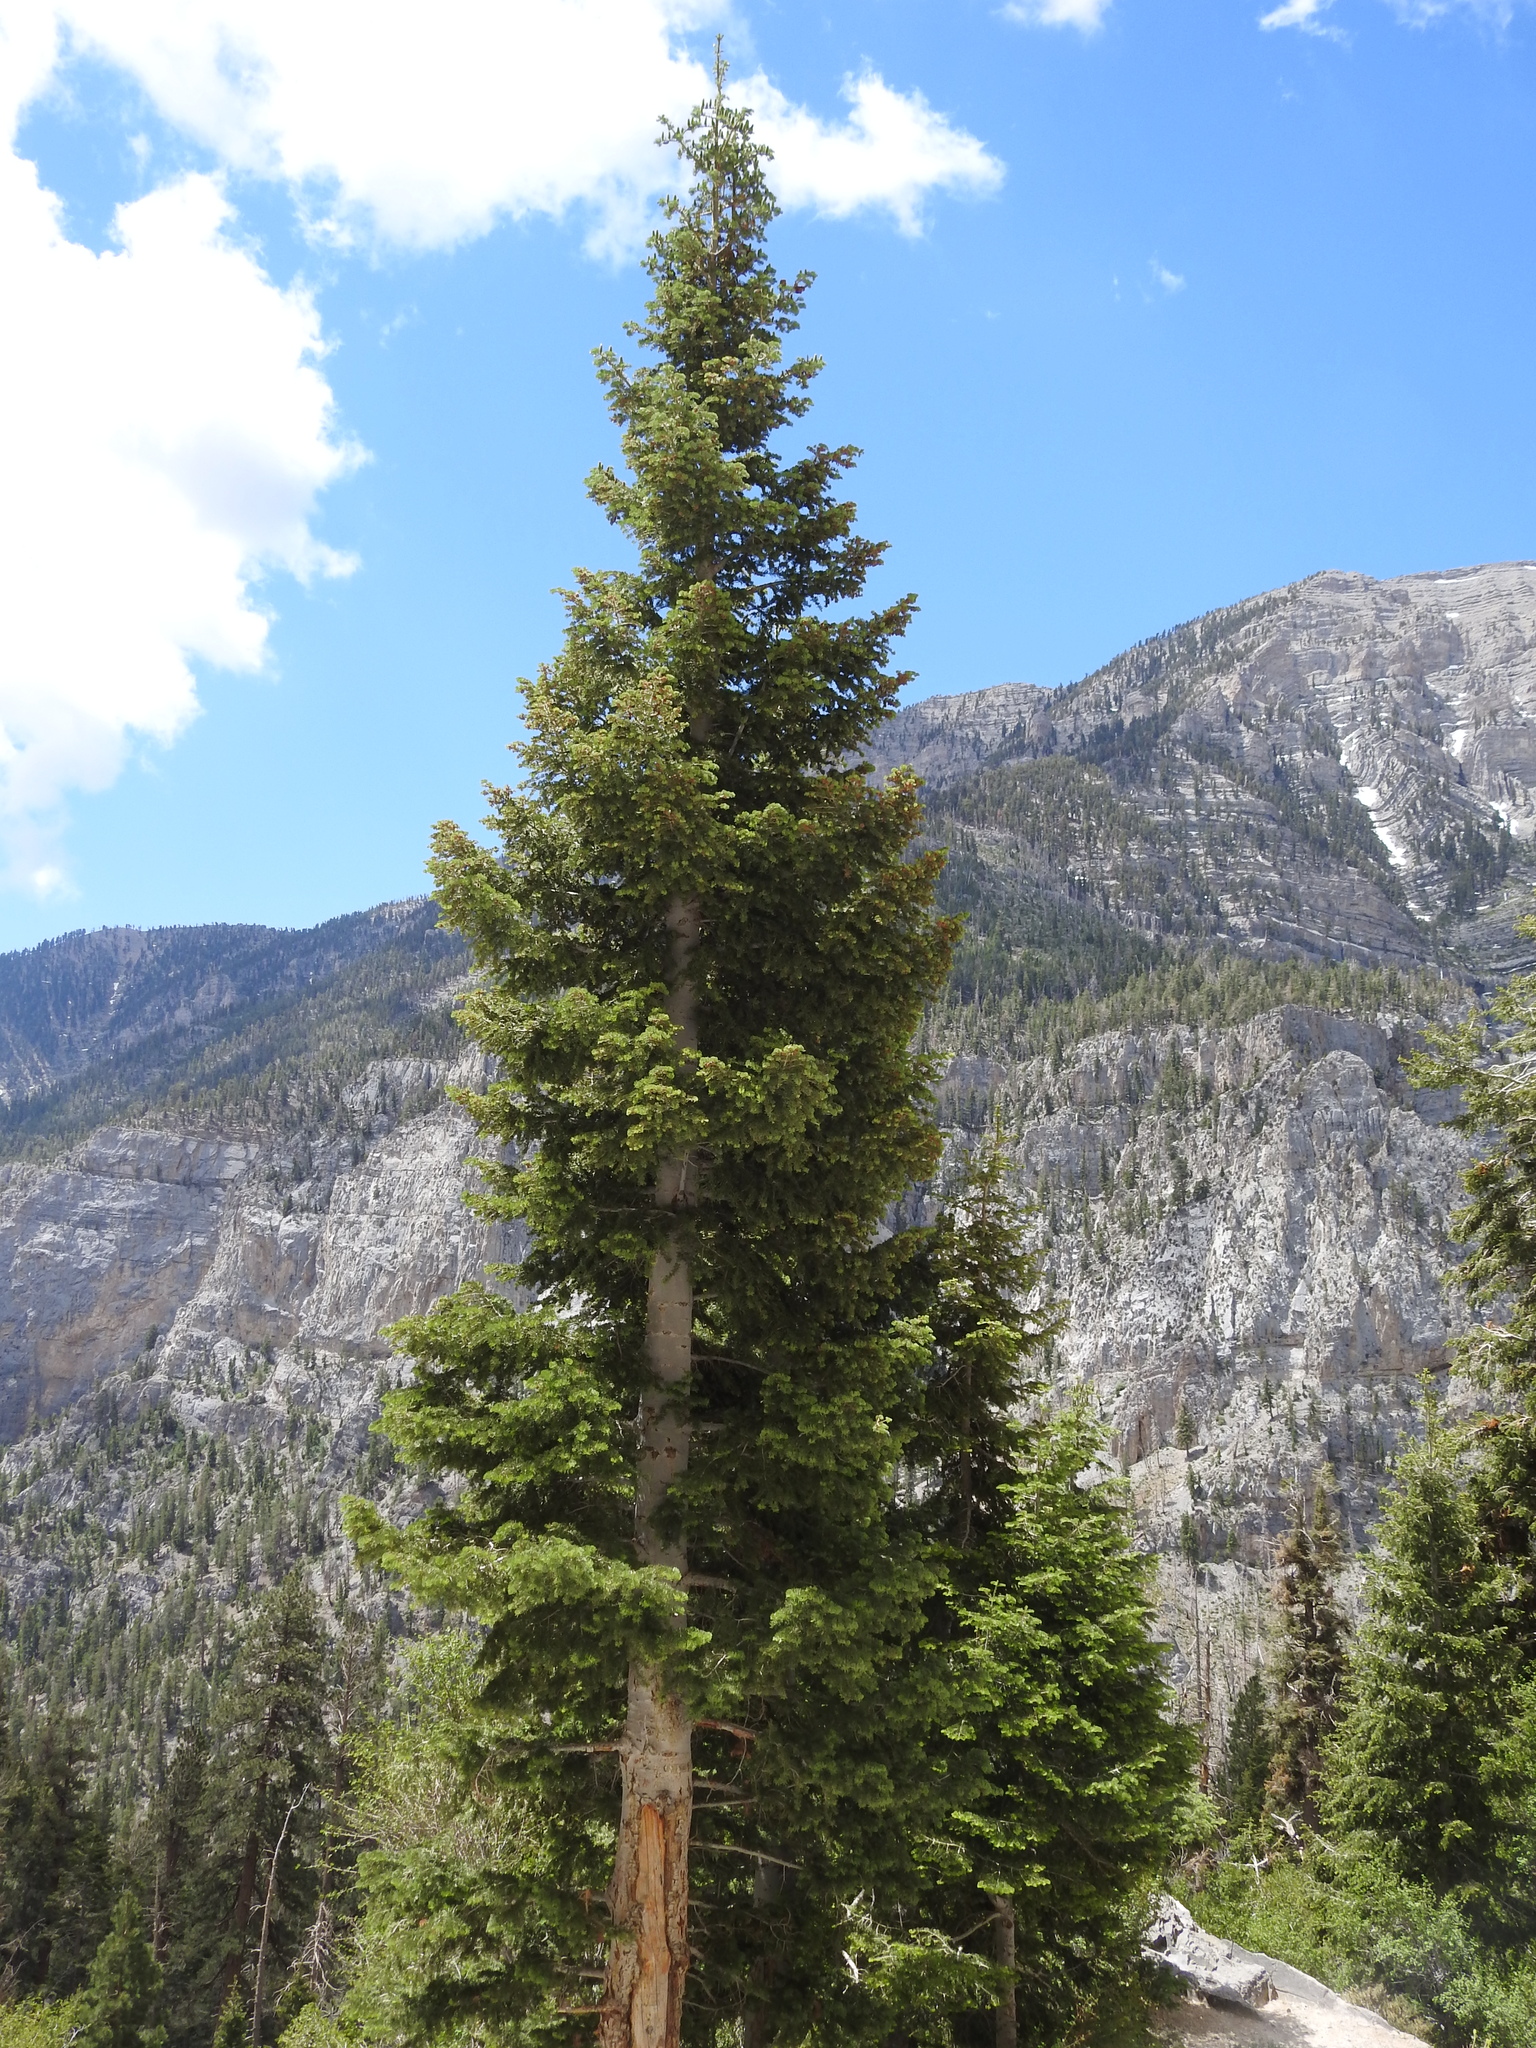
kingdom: Plantae
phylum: Tracheophyta
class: Pinopsida
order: Pinales
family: Pinaceae
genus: Abies
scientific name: Abies concolor
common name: Colorado fir
